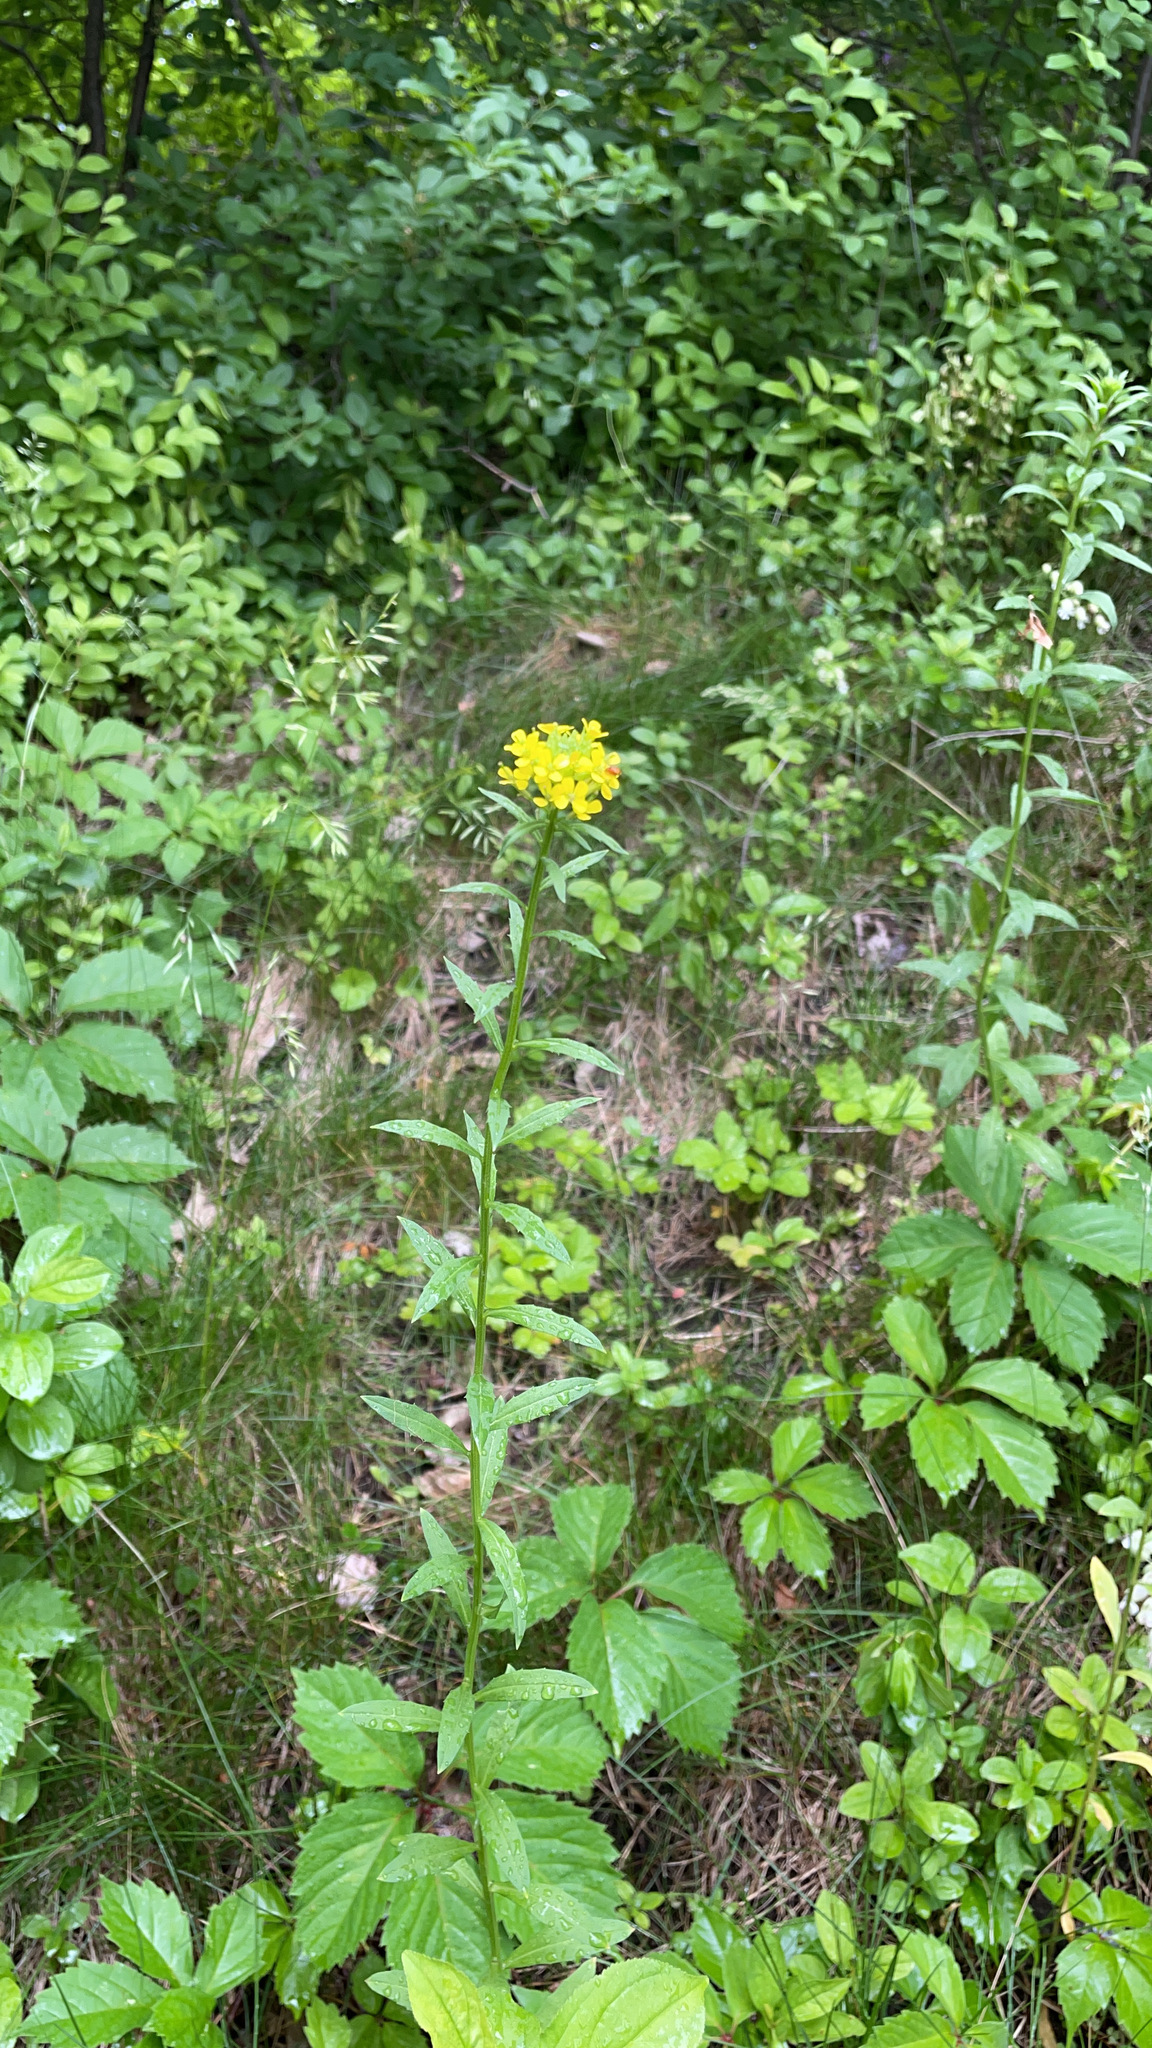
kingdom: Plantae
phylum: Tracheophyta
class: Magnoliopsida
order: Brassicales
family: Brassicaceae
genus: Erysimum
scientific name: Erysimum cheiranthoides
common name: Treacle mustard
